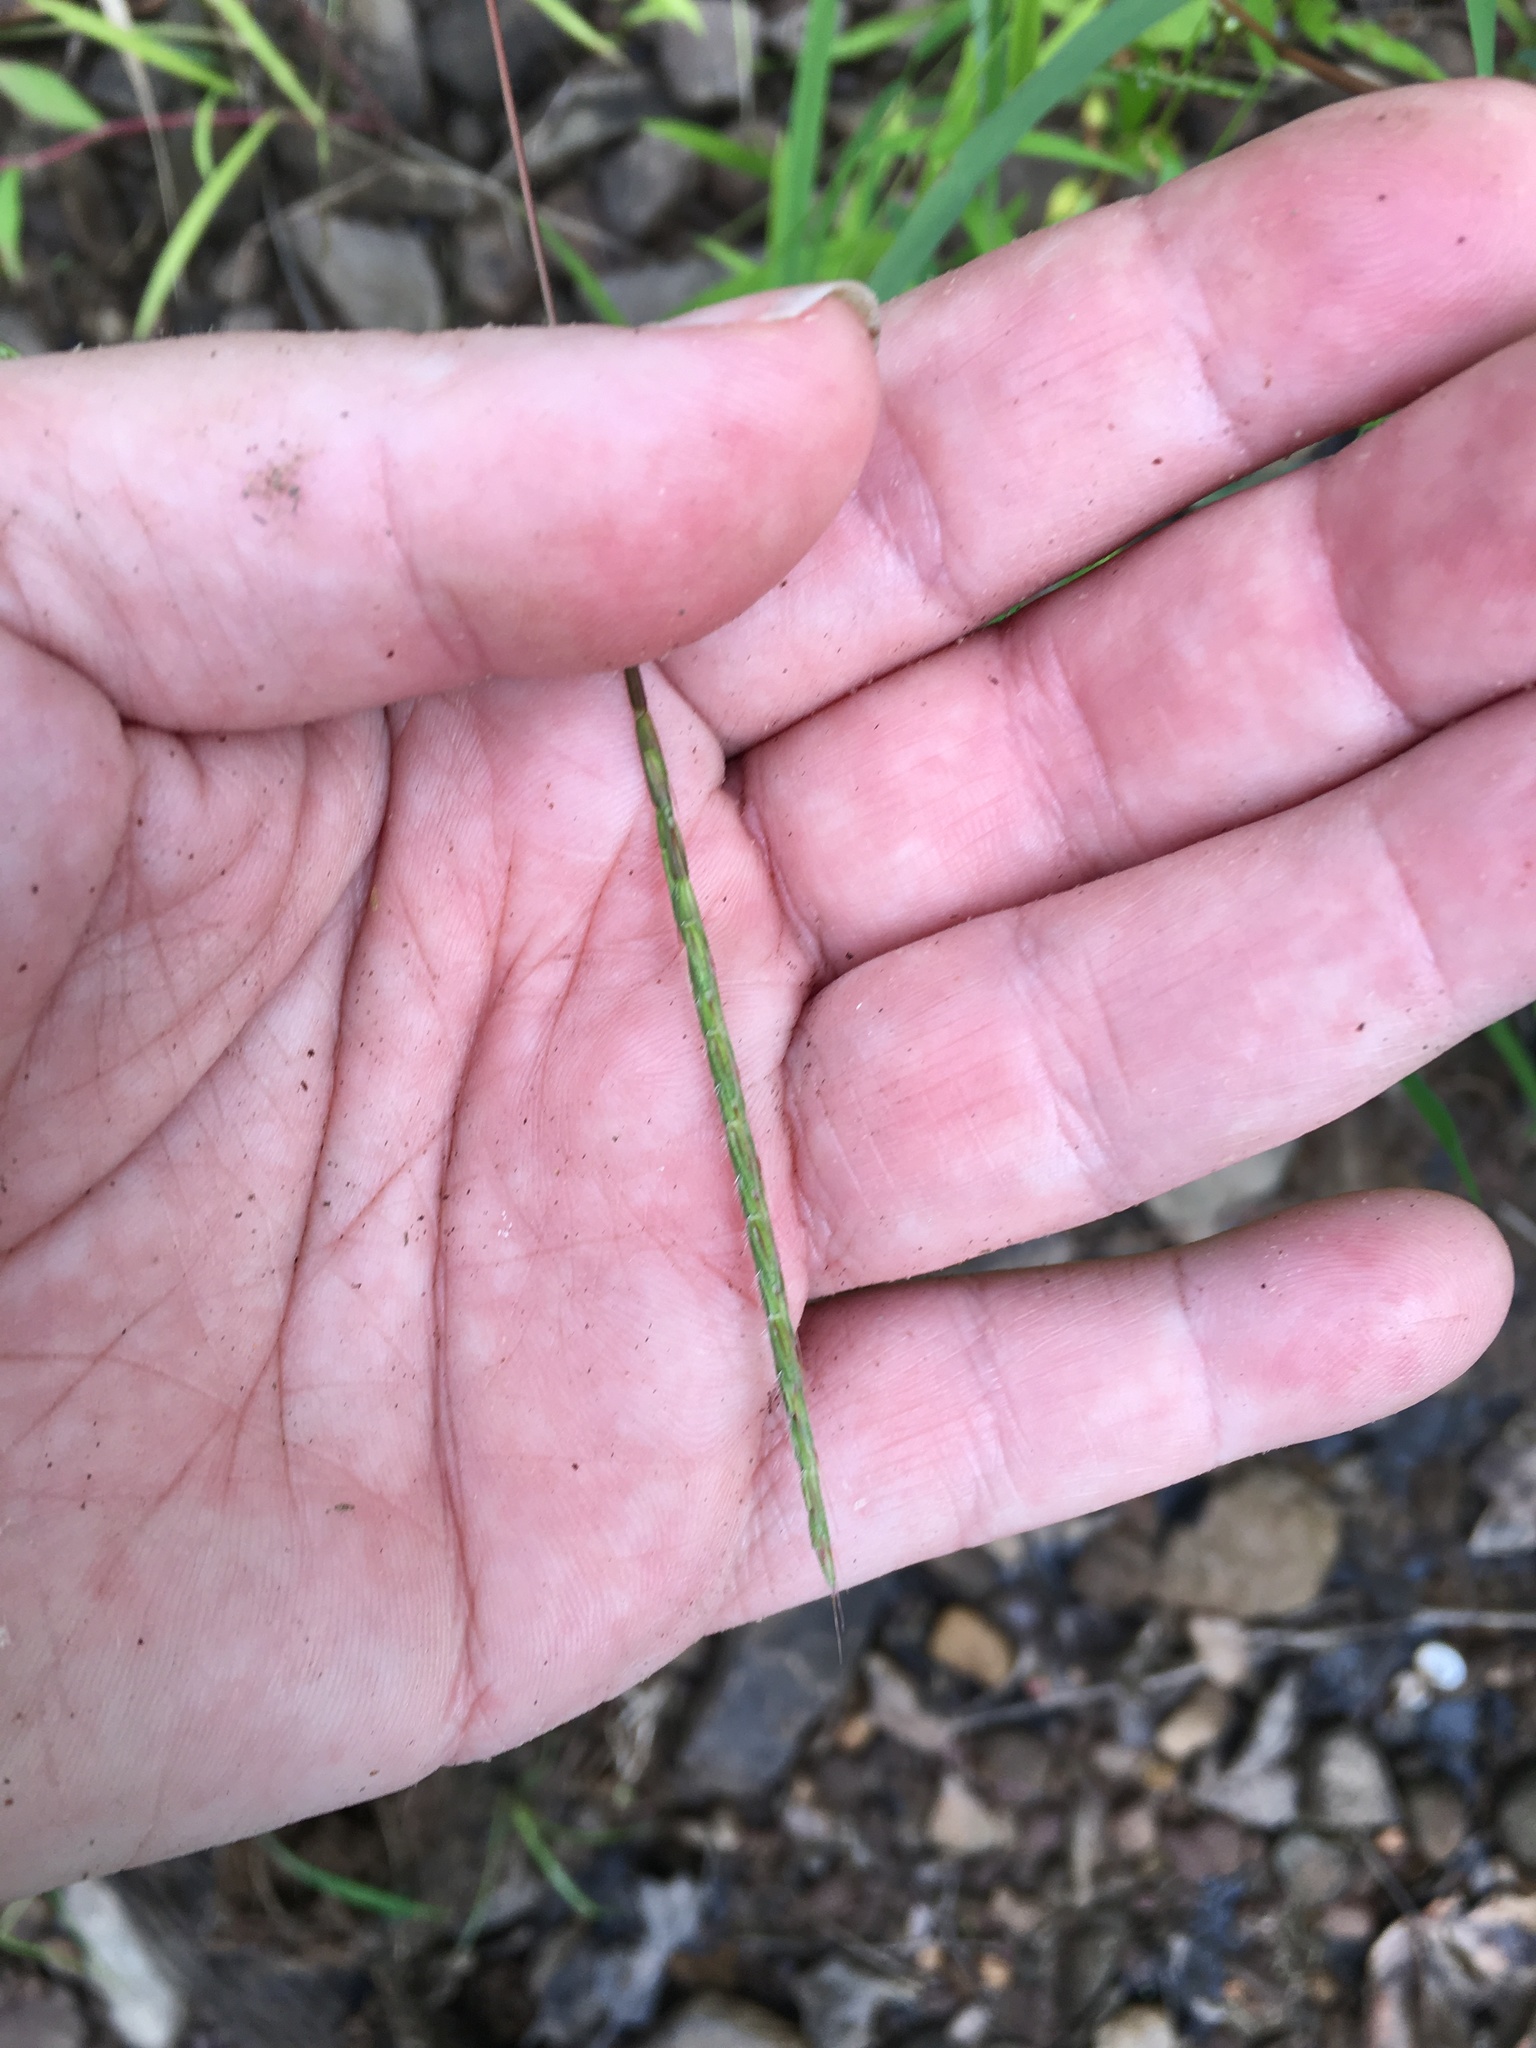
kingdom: Plantae
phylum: Tracheophyta
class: Liliopsida
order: Poales
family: Poaceae
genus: Microstegium
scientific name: Microstegium vimineum
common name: Japanese stiltgrass
